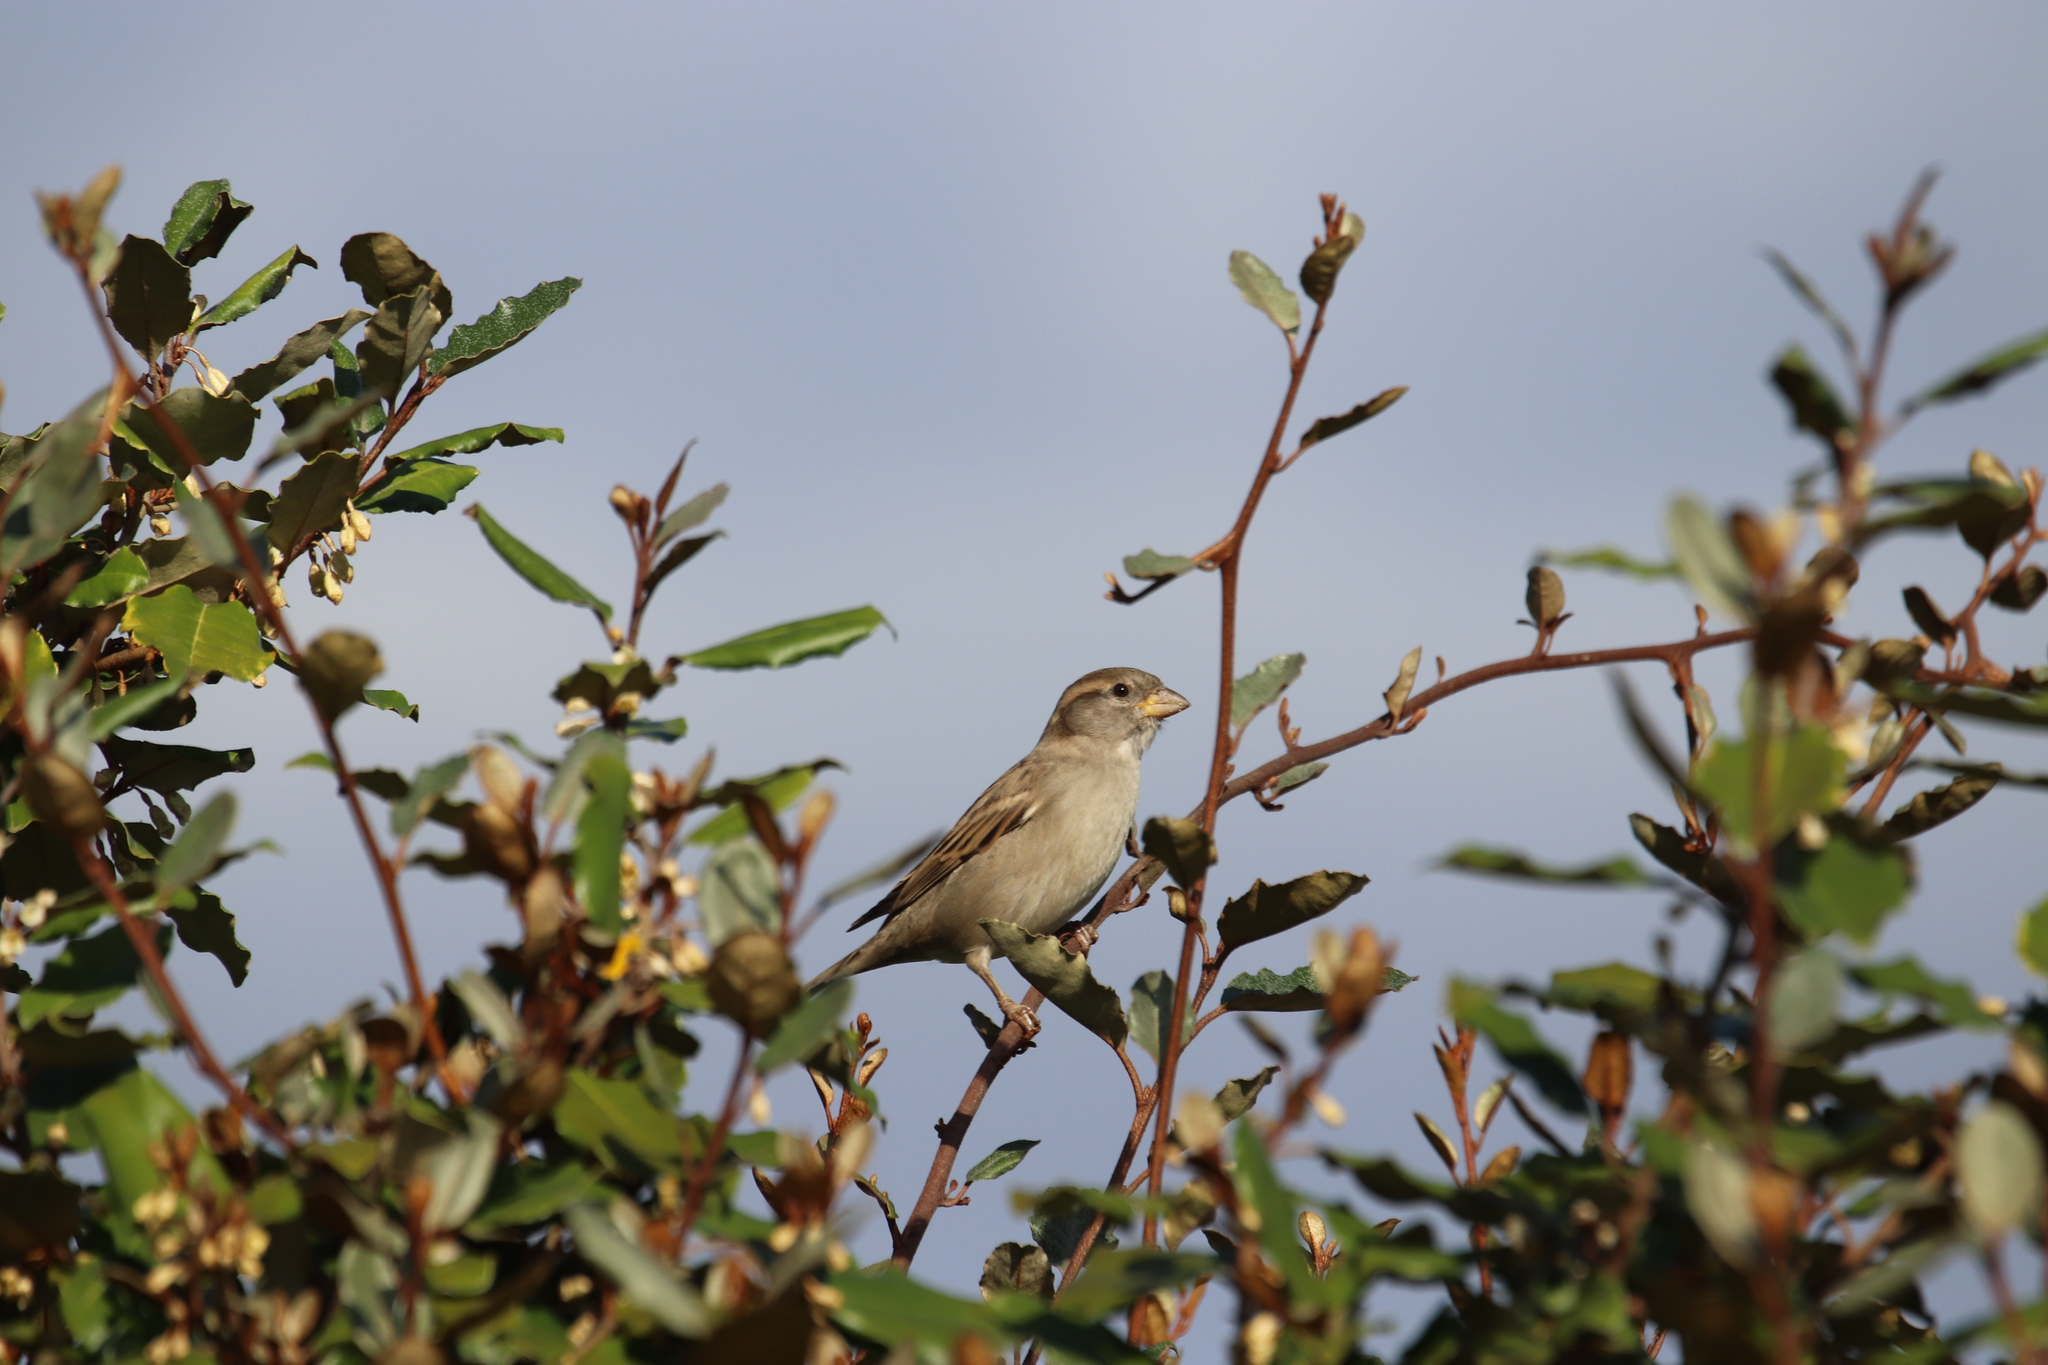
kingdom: Animalia
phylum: Chordata
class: Aves
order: Passeriformes
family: Passeridae
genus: Passer
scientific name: Passer domesticus
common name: House sparrow
